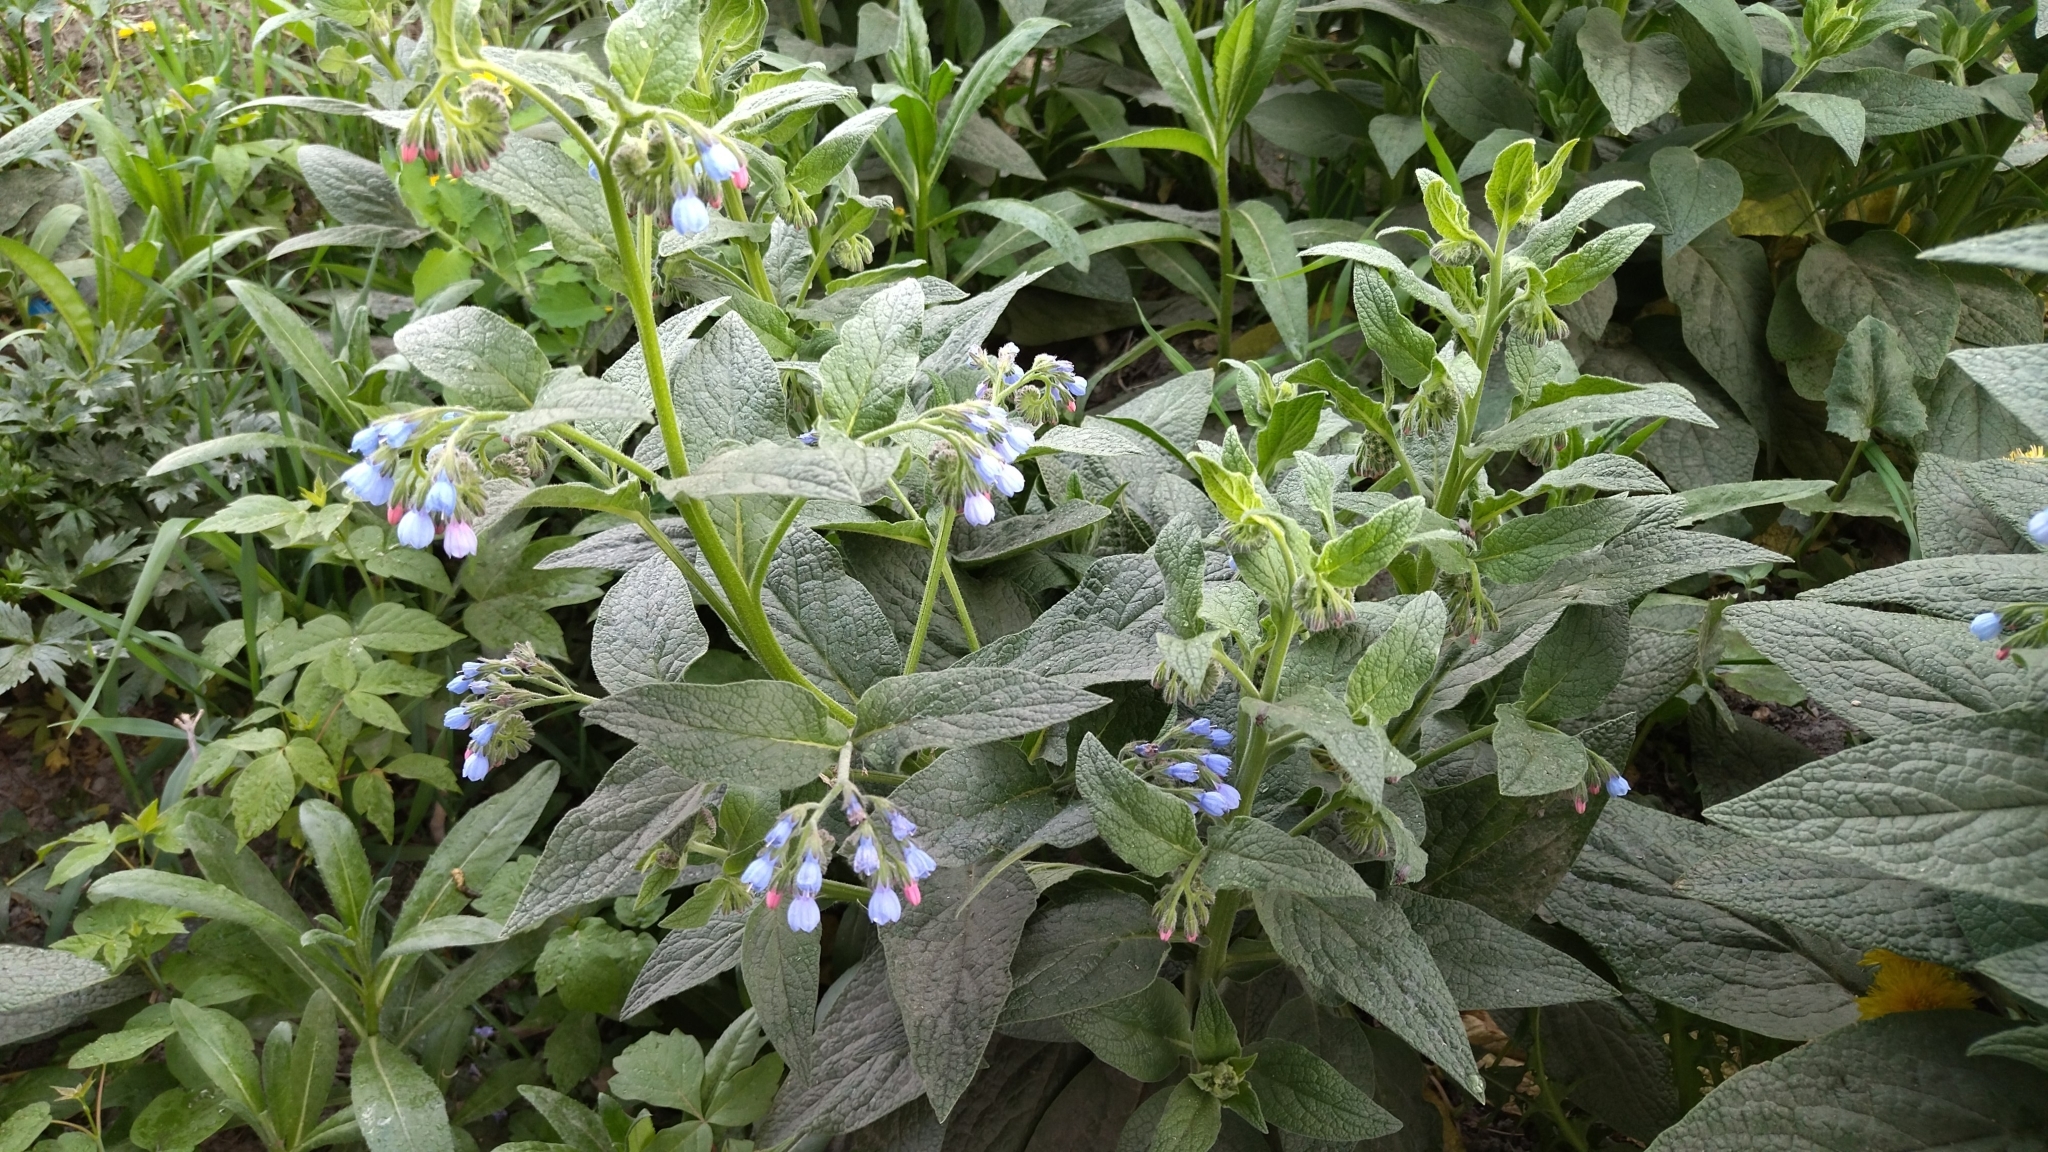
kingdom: Plantae
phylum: Tracheophyta
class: Magnoliopsida
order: Boraginales
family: Boraginaceae
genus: Symphytum
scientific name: Symphytum caucasicum
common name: Caucasian comfrey
